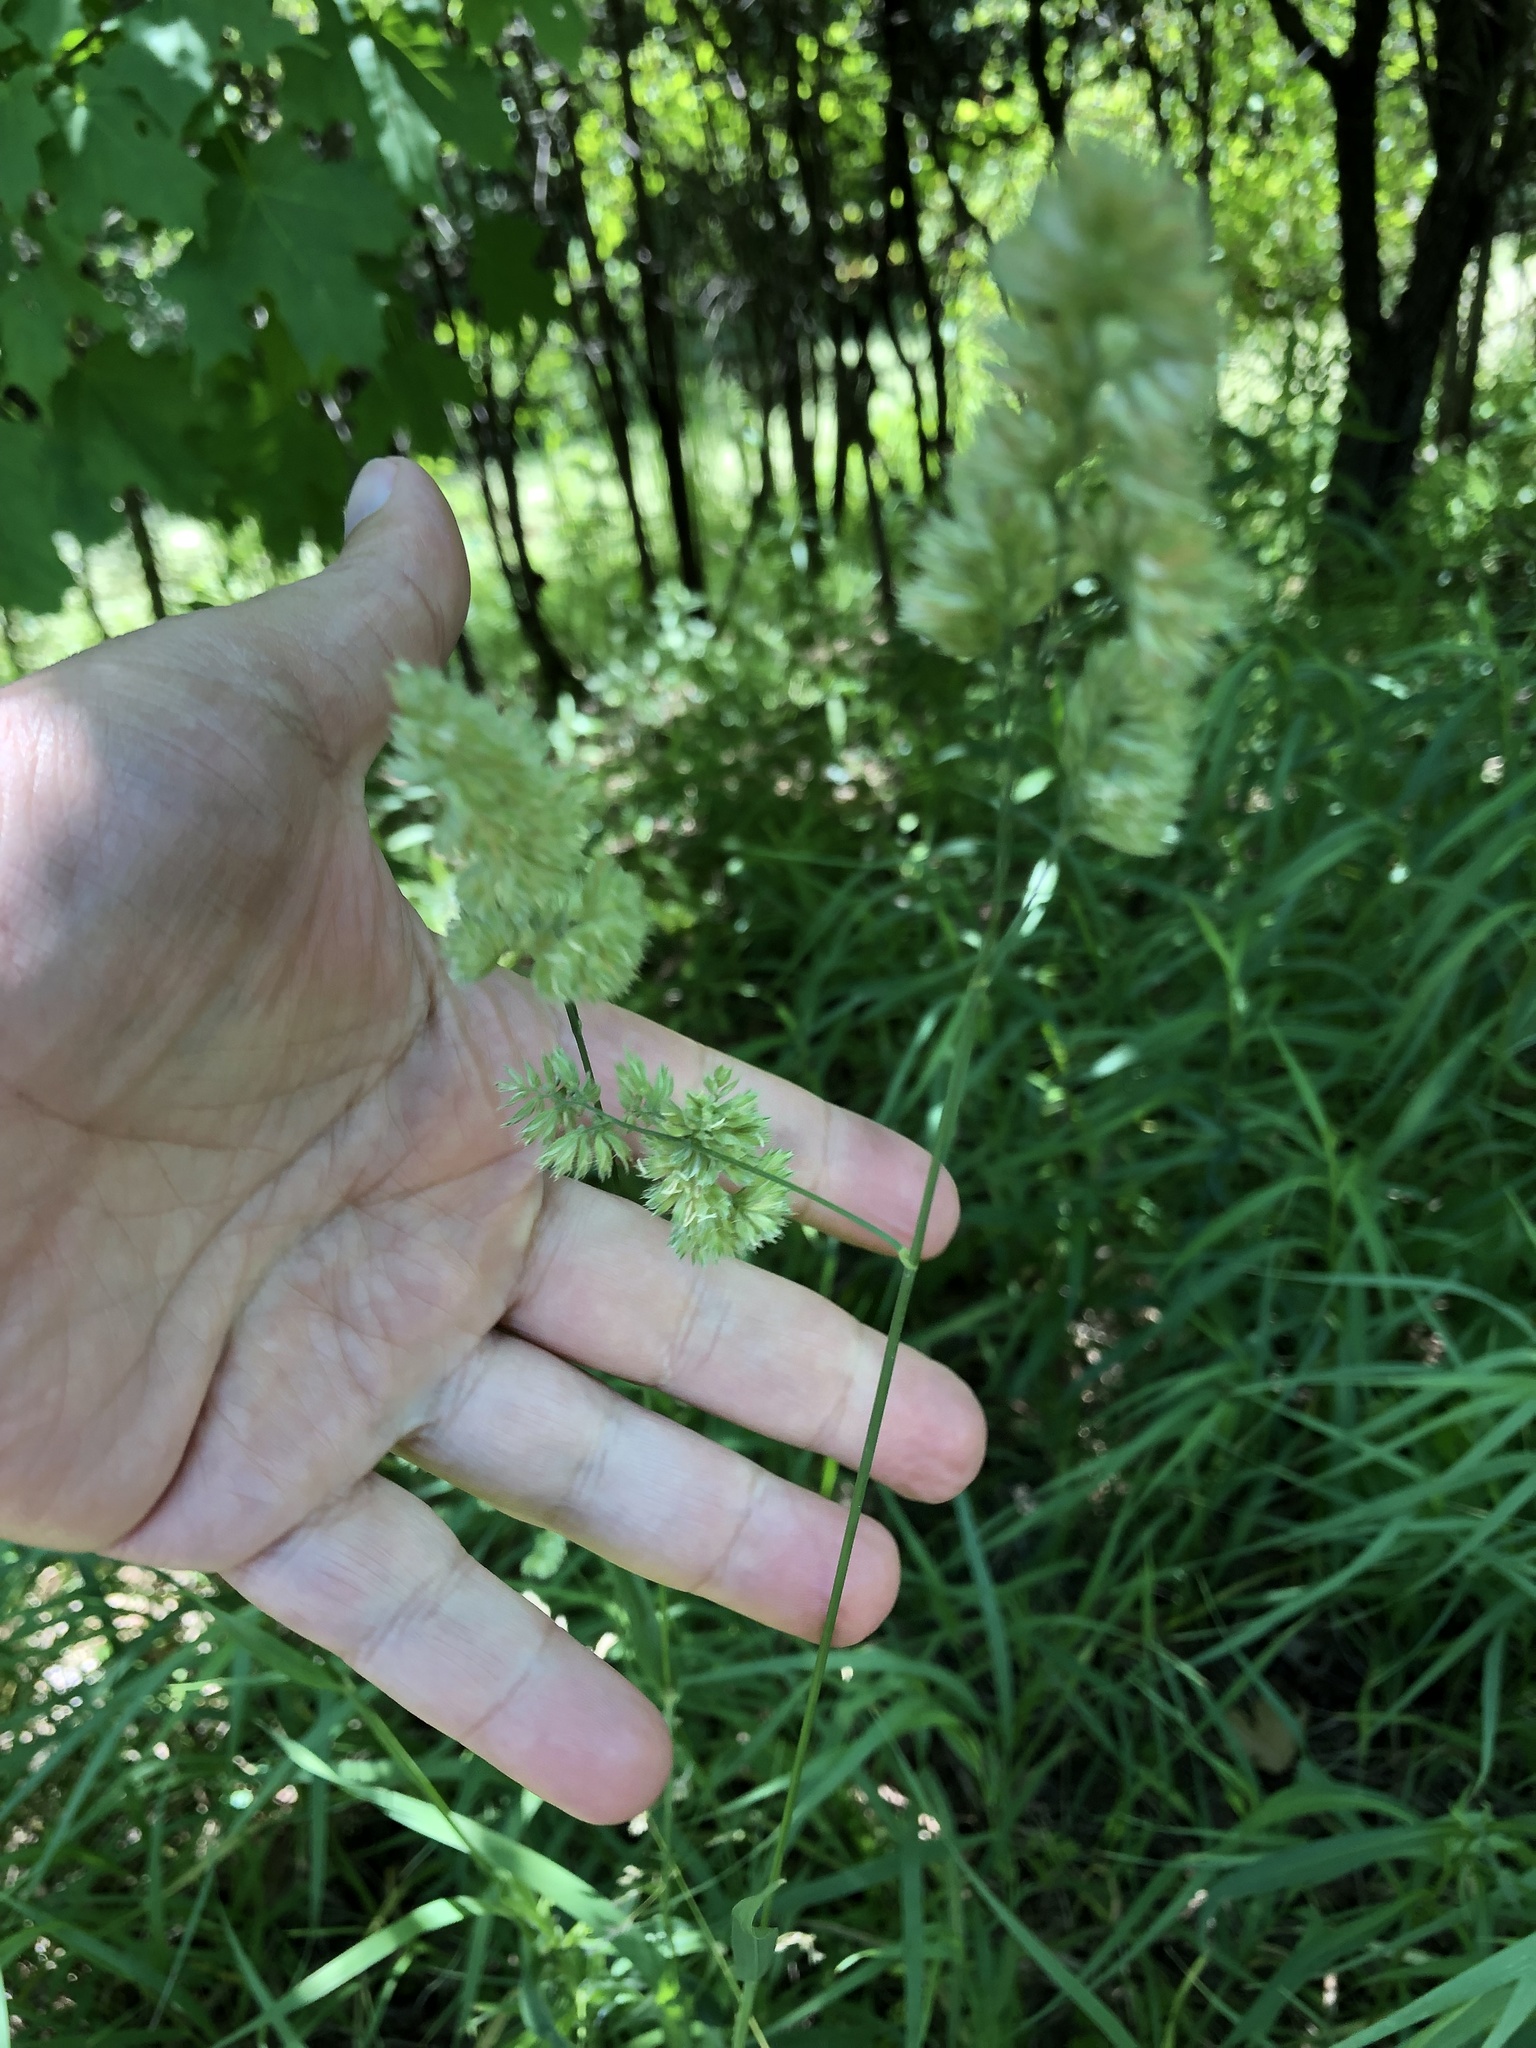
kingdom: Plantae
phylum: Tracheophyta
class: Liliopsida
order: Poales
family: Poaceae
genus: Dactylis
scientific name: Dactylis glomerata
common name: Orchardgrass
